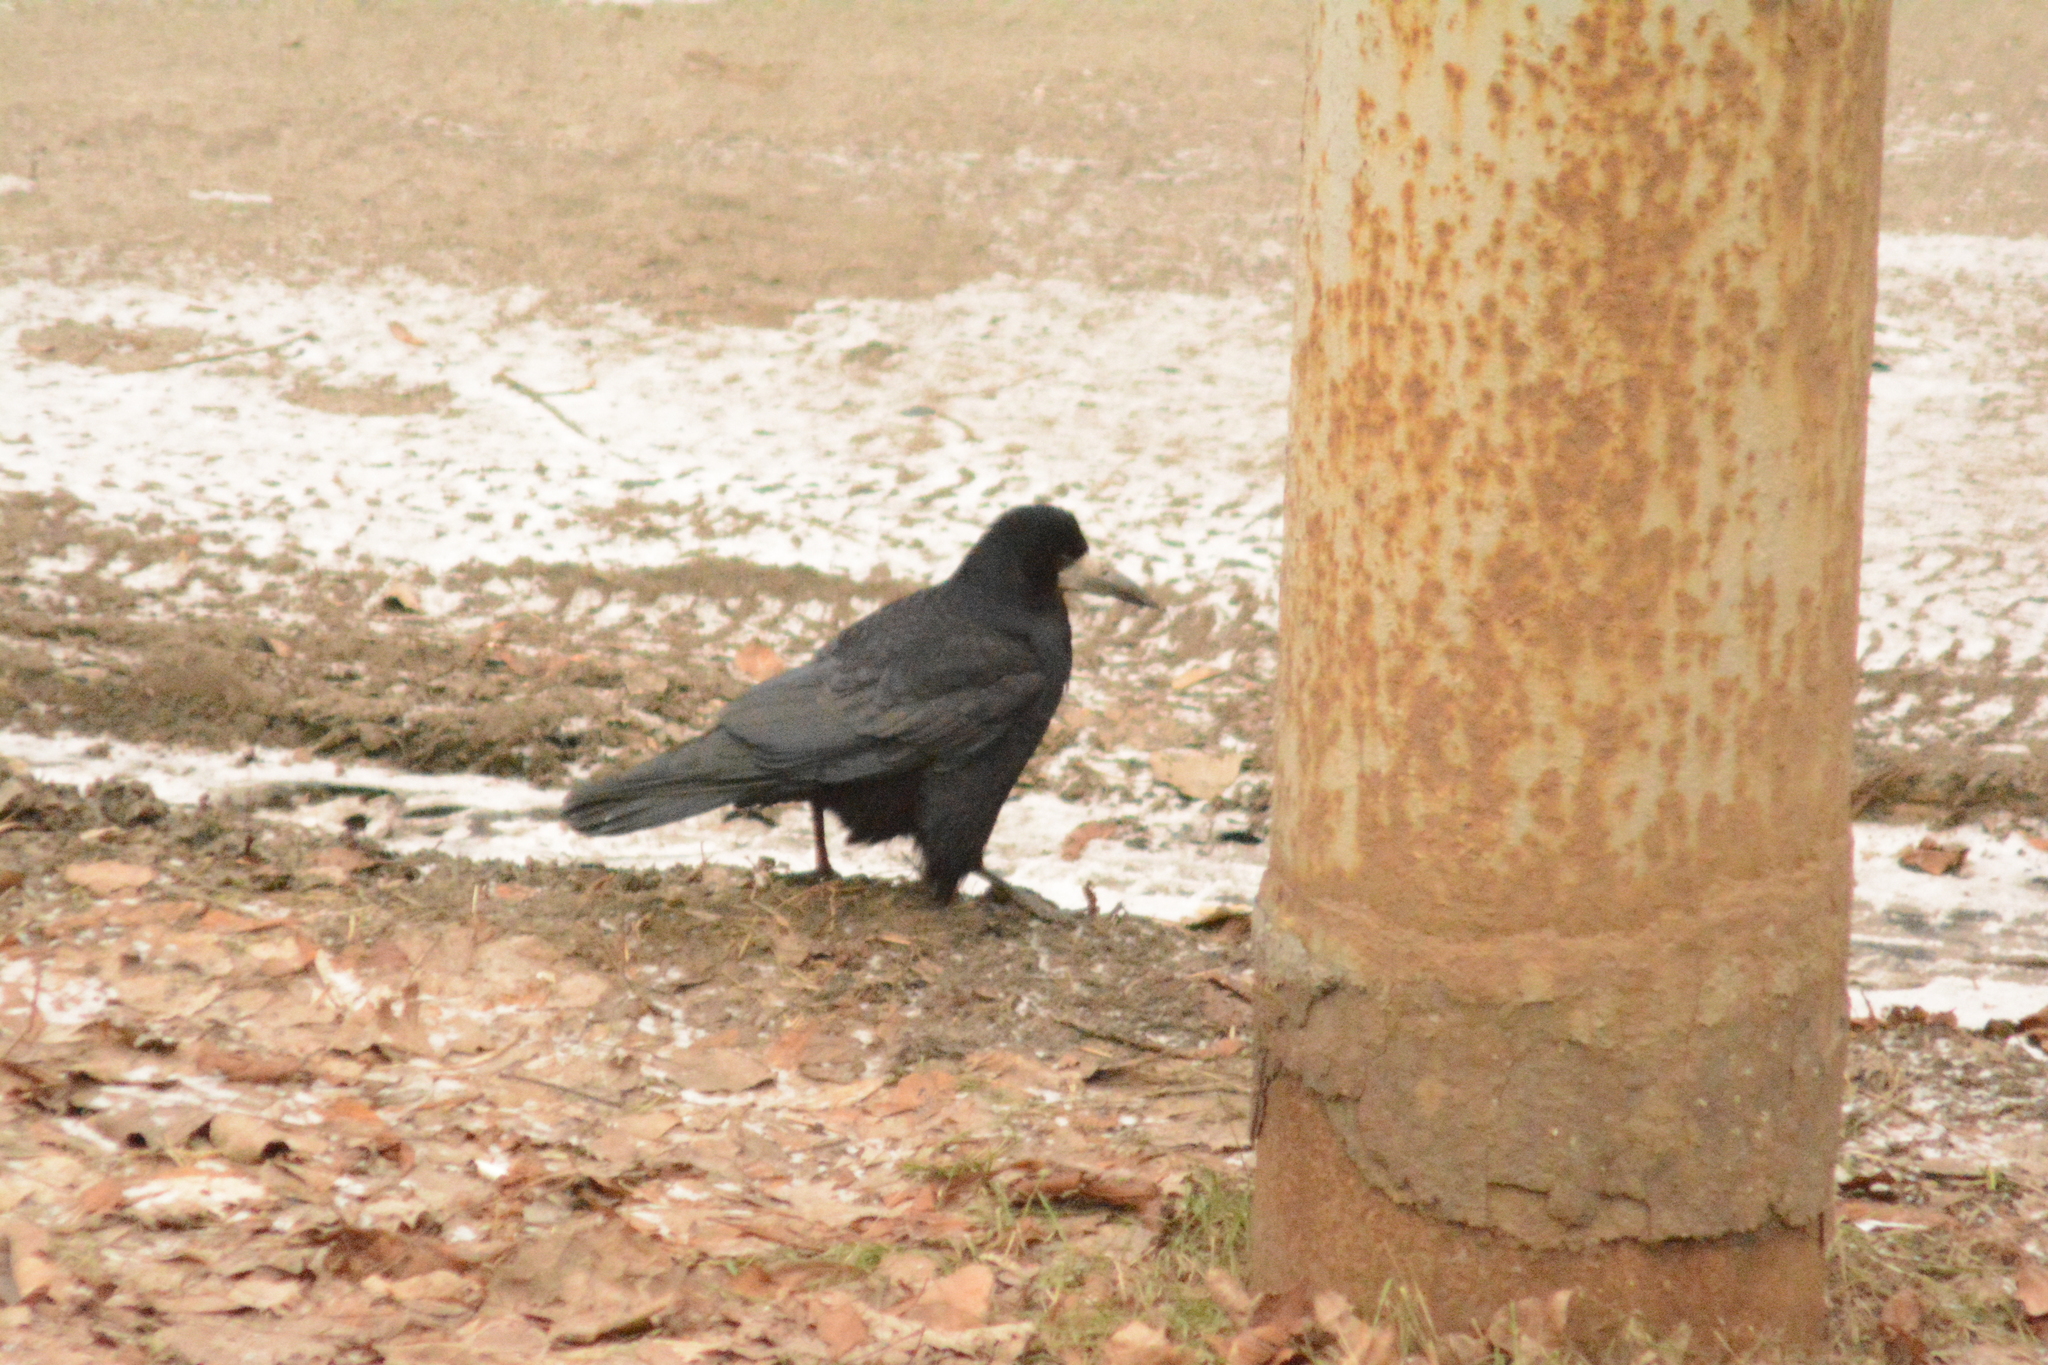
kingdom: Animalia
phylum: Chordata
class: Aves
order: Passeriformes
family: Corvidae
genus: Corvus
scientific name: Corvus frugilegus
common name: Rook
